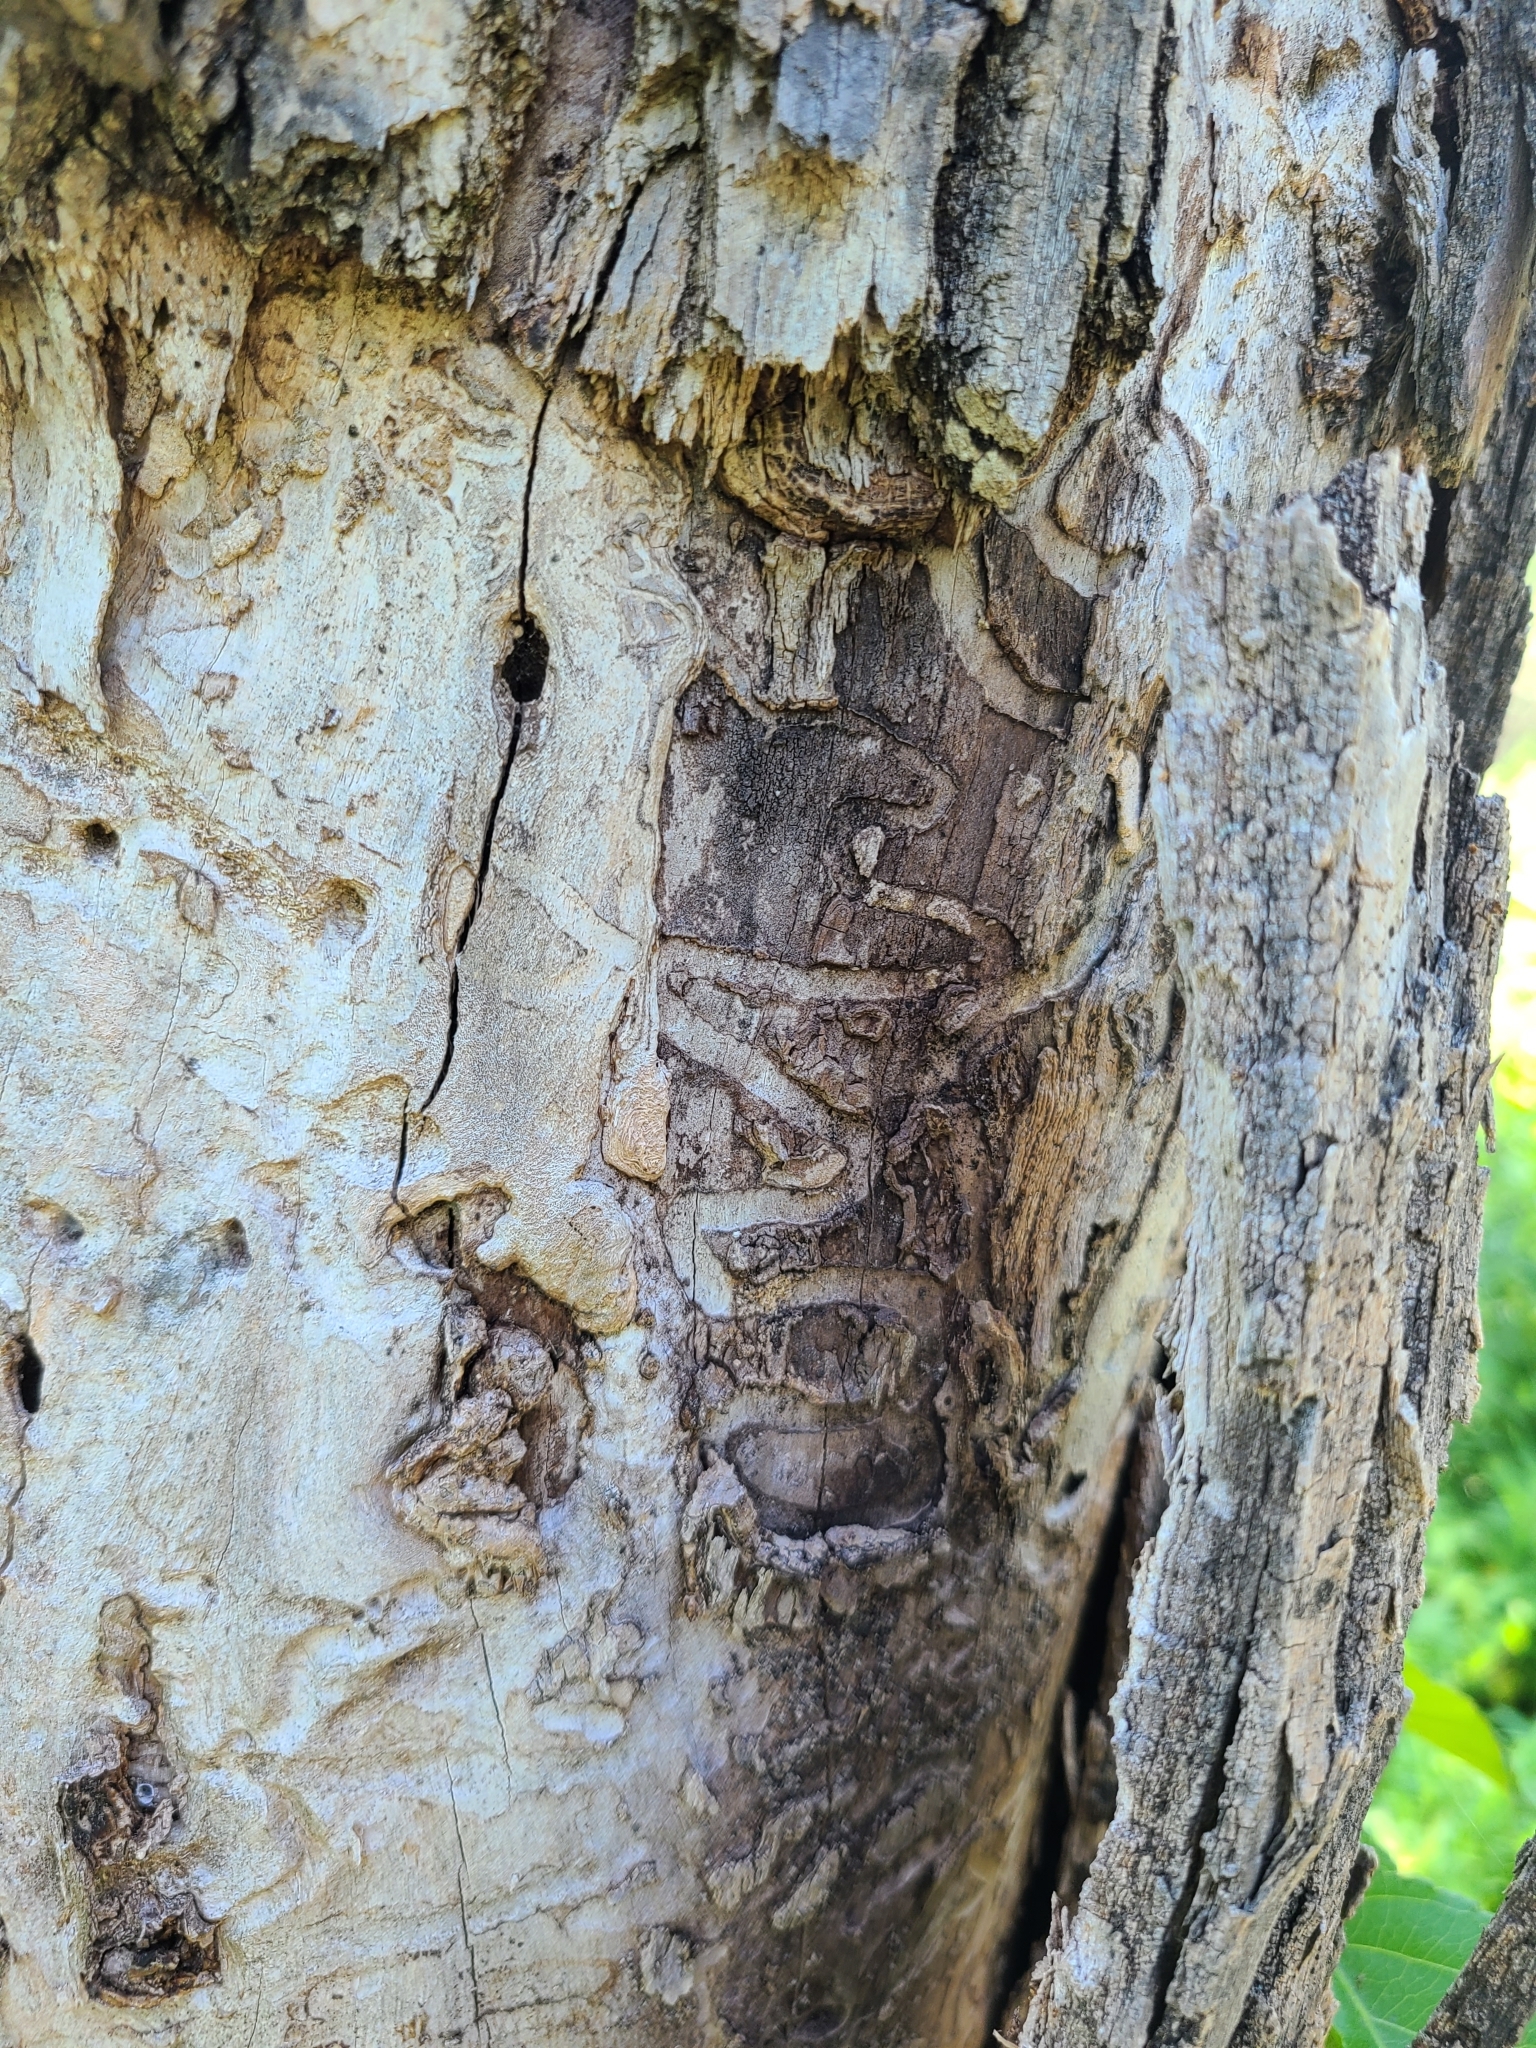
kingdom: Animalia
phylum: Arthropoda
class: Insecta
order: Coleoptera
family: Buprestidae
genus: Agrilus
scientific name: Agrilus planipennis
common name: Emerald ash borer
